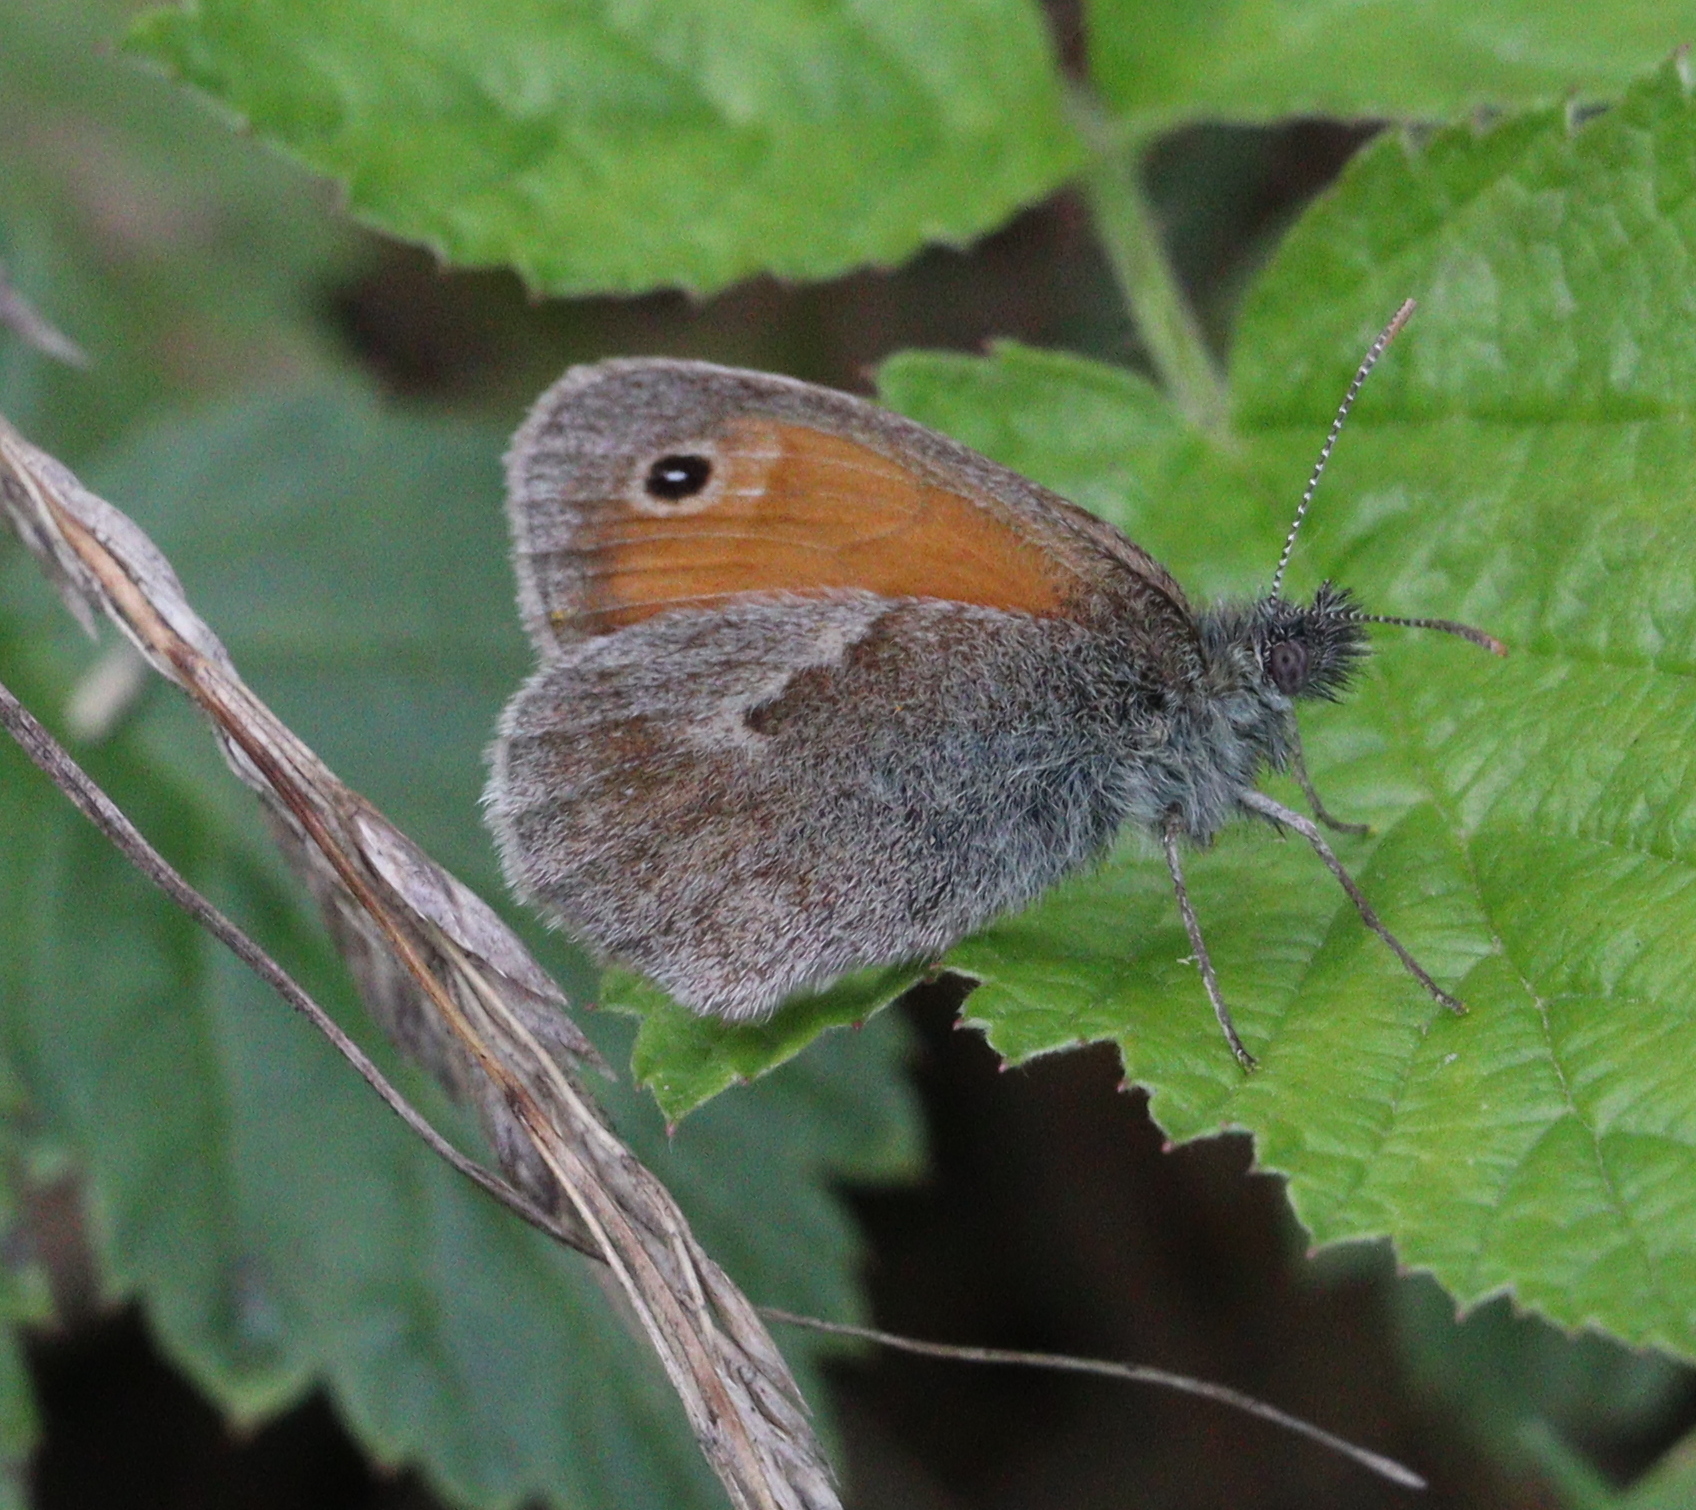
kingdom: Animalia
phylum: Arthropoda
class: Insecta
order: Lepidoptera
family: Nymphalidae
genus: Coenonympha
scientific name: Coenonympha pamphilus
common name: Small heath
